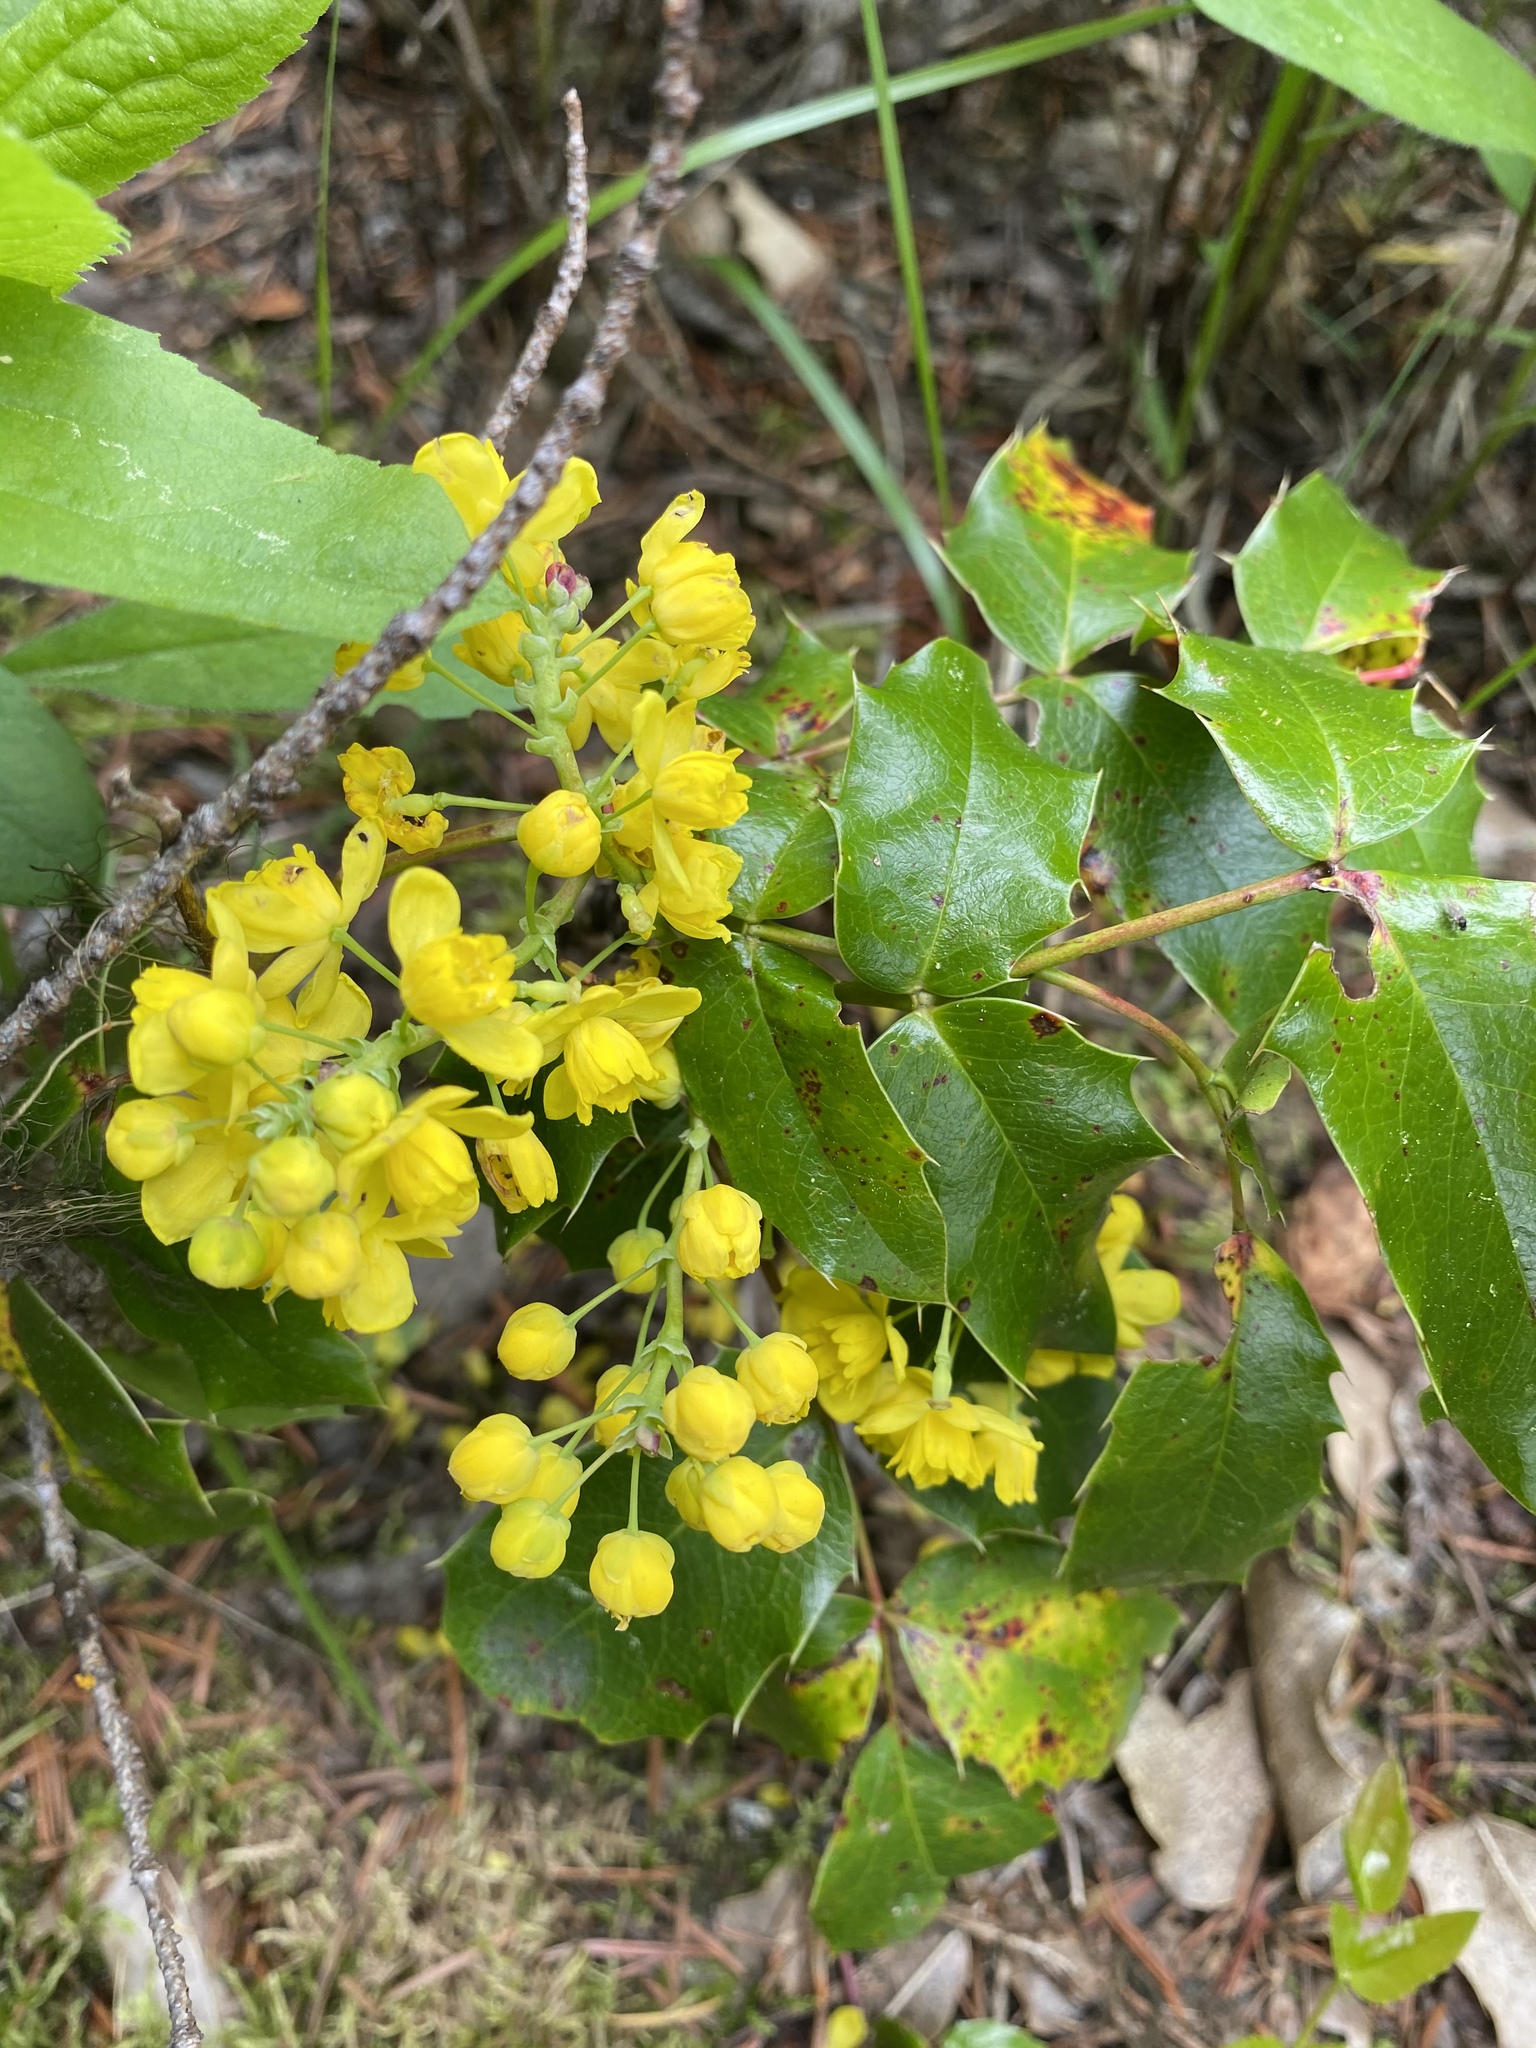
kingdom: Plantae
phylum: Tracheophyta
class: Magnoliopsida
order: Ranunculales
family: Berberidaceae
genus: Mahonia
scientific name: Mahonia aquifolium
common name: Oregon-grape
